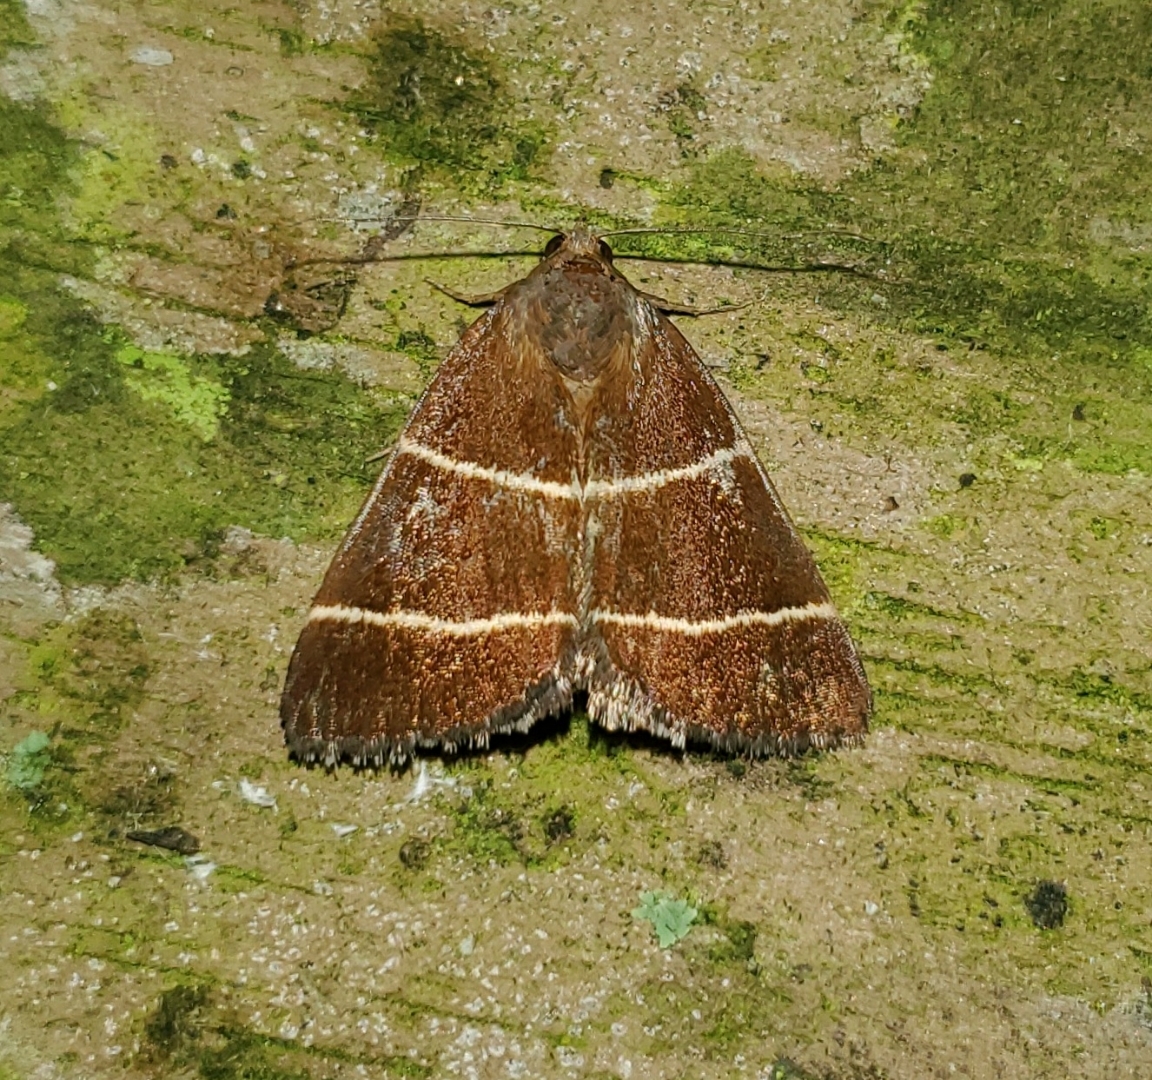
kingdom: Animalia
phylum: Arthropoda
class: Insecta
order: Lepidoptera
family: Erebidae
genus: Argyrostrotis
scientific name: Argyrostrotis quadrifilaris
